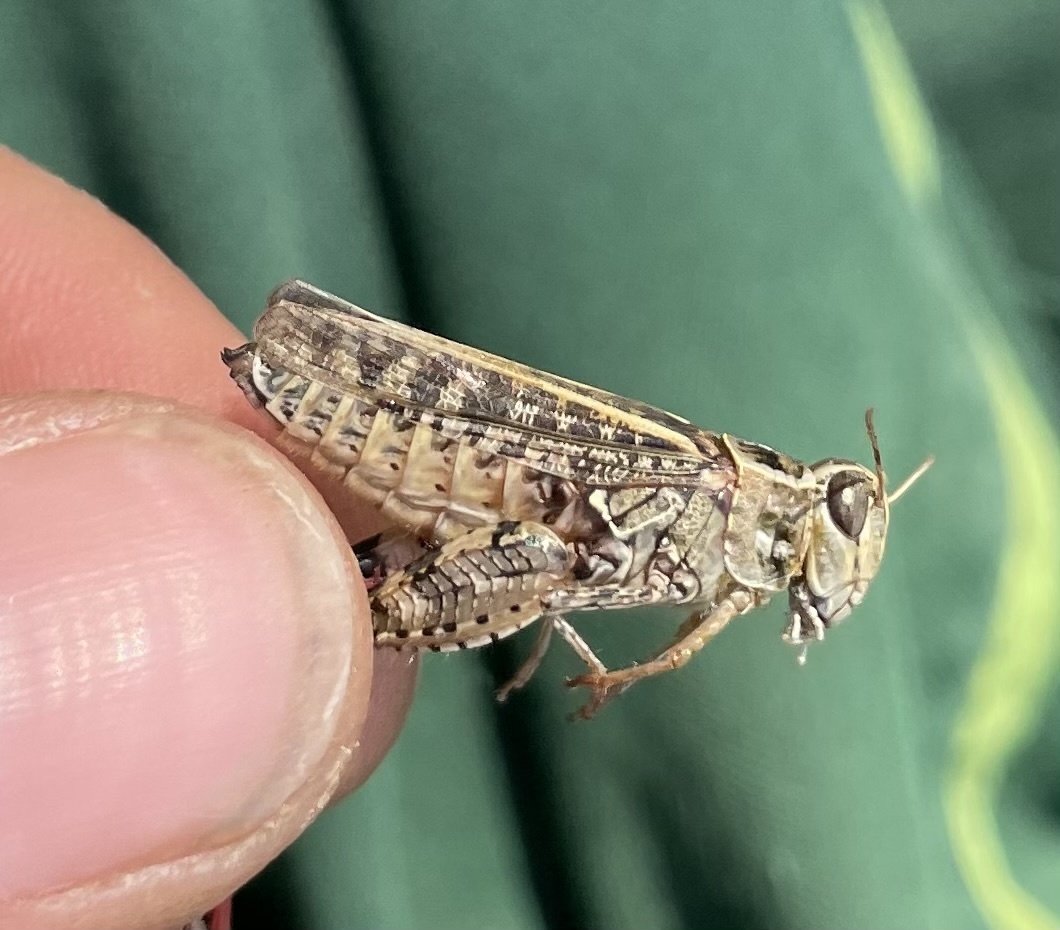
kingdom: Animalia
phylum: Arthropoda
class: Insecta
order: Orthoptera
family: Acrididae
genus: Calliptamus
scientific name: Calliptamus italicus
